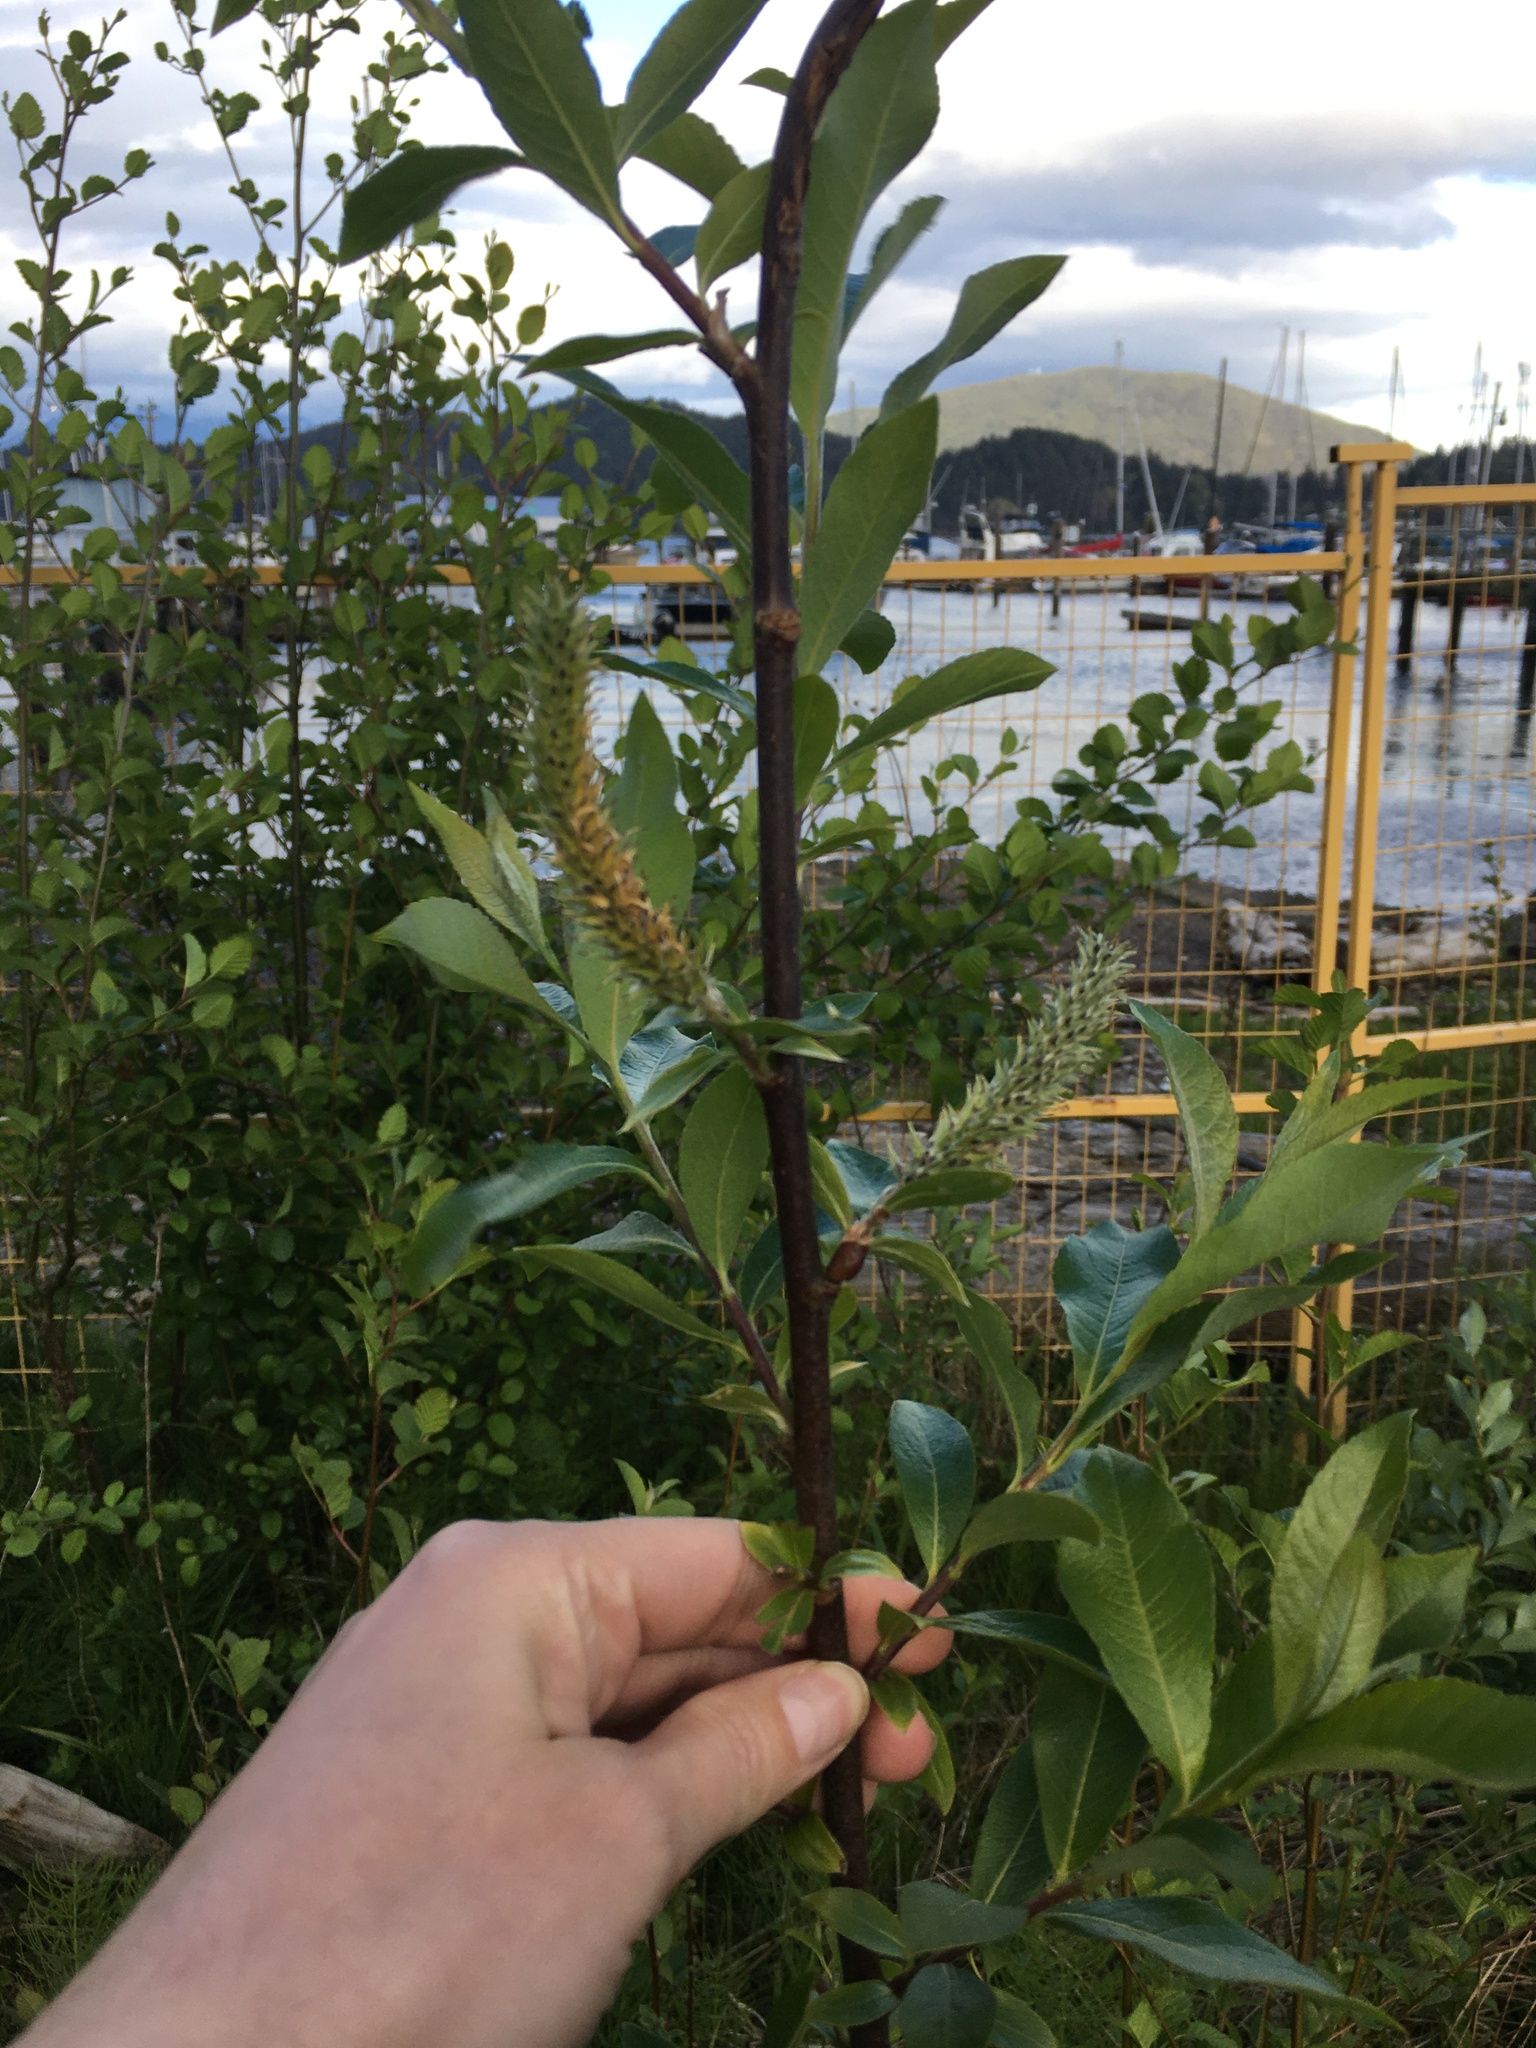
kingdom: Plantae
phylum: Tracheophyta
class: Magnoliopsida
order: Malpighiales
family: Salicaceae
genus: Salix
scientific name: Salix sitchensis
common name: Sitka willow
